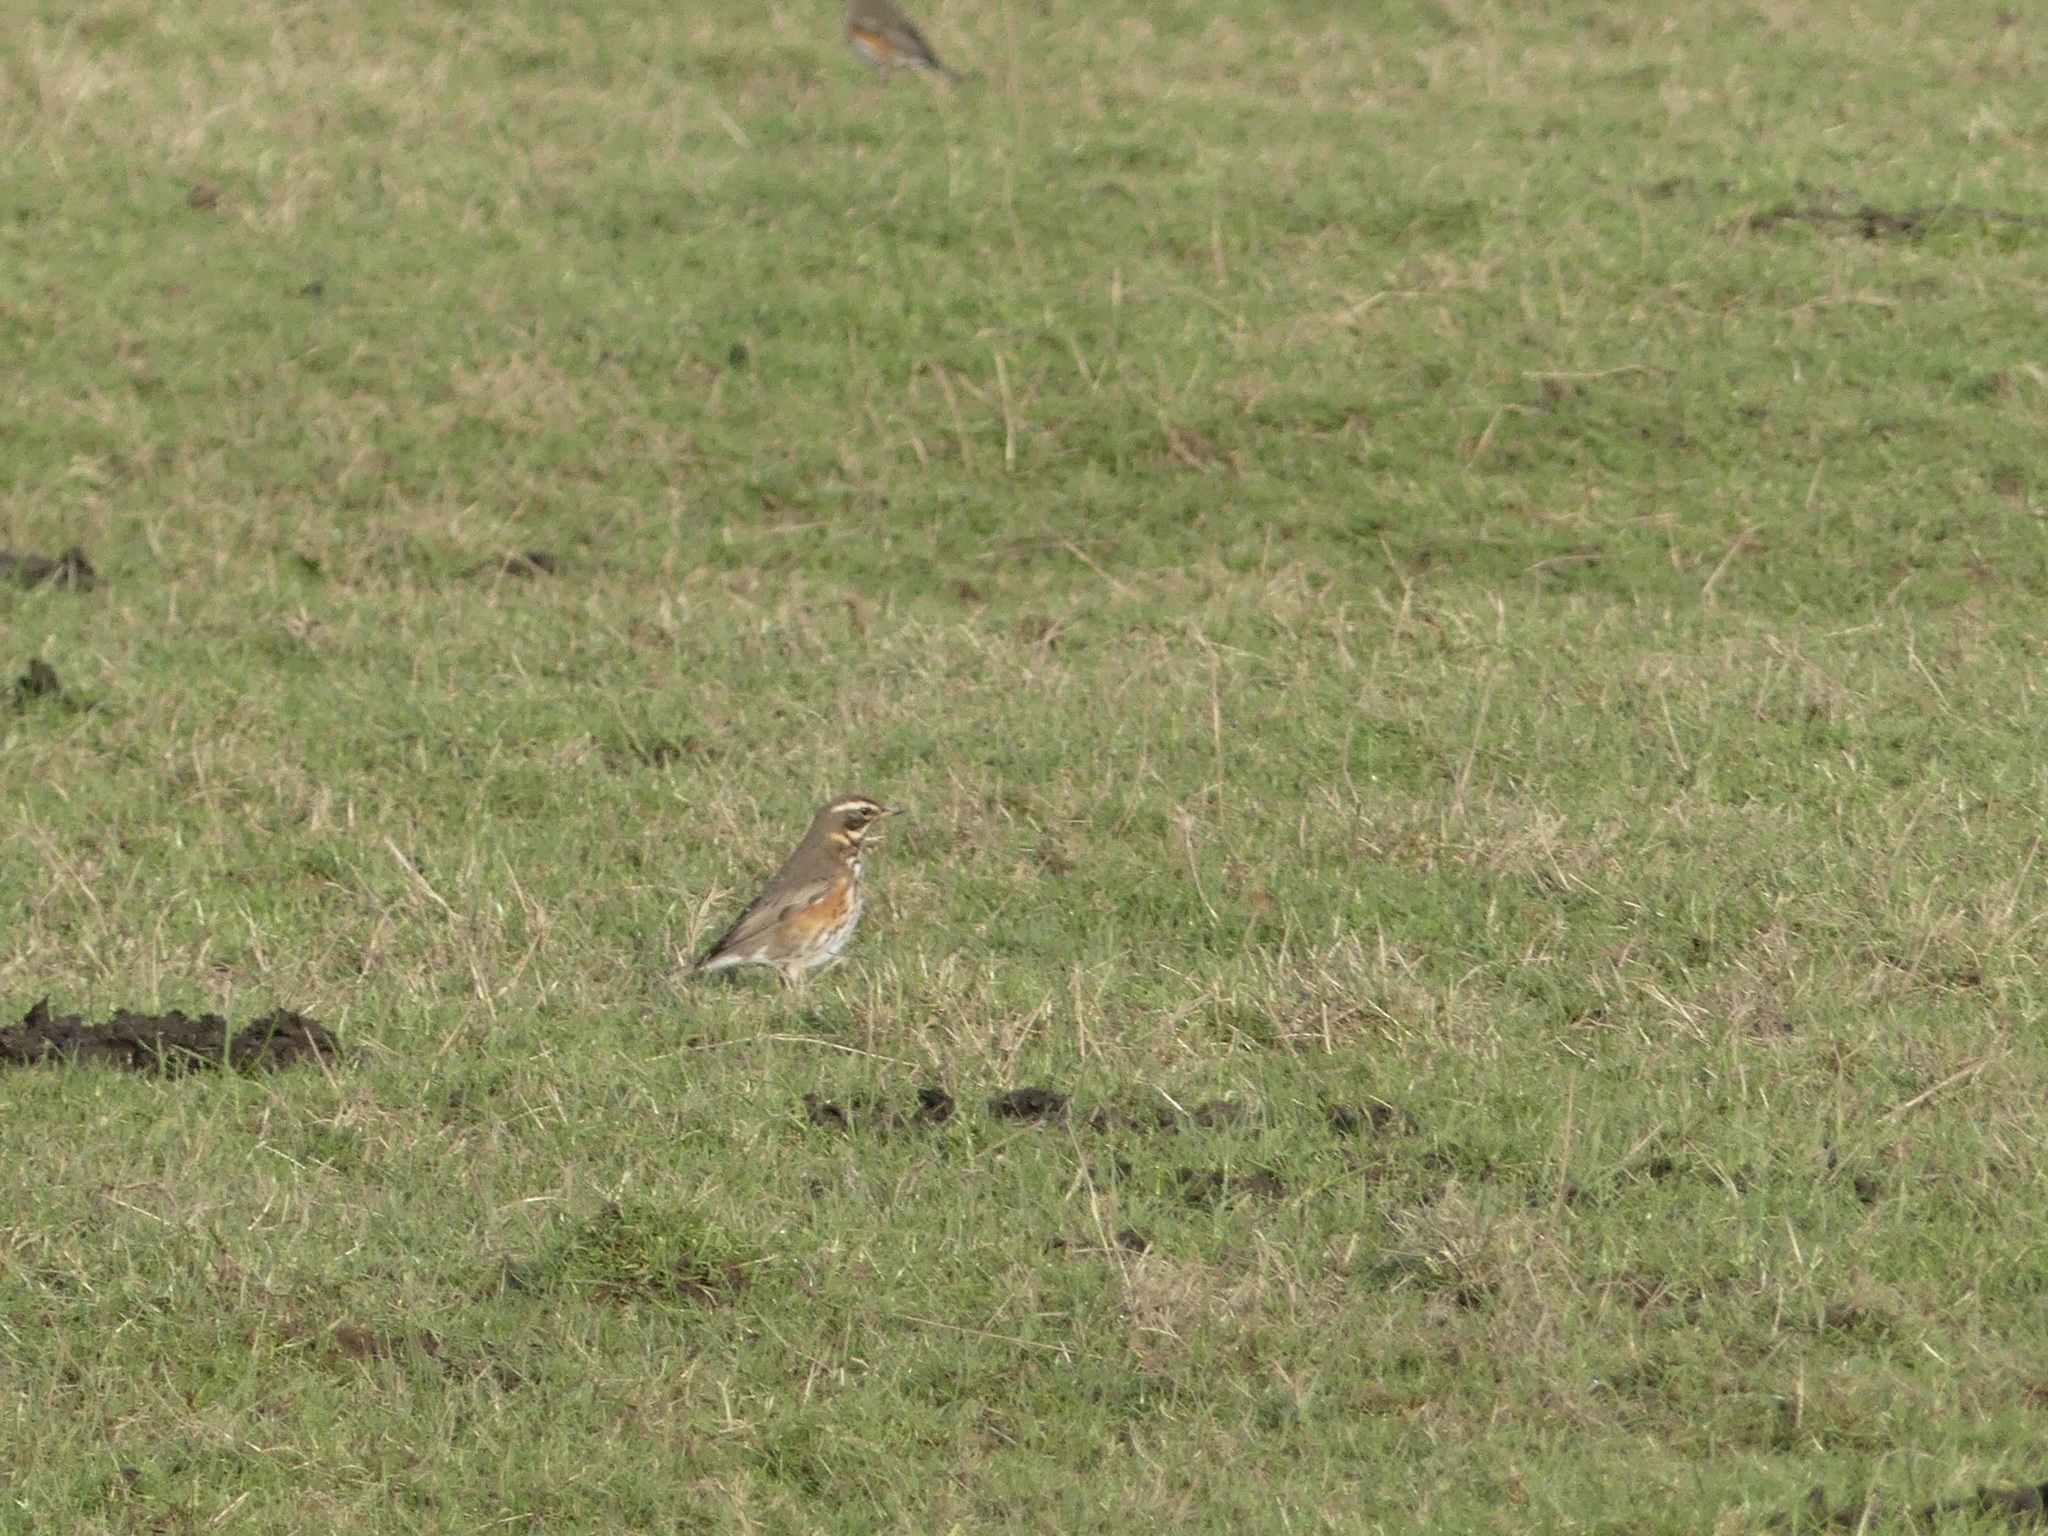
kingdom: Animalia
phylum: Chordata
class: Aves
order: Passeriformes
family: Turdidae
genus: Turdus
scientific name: Turdus iliacus
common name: Redwing
